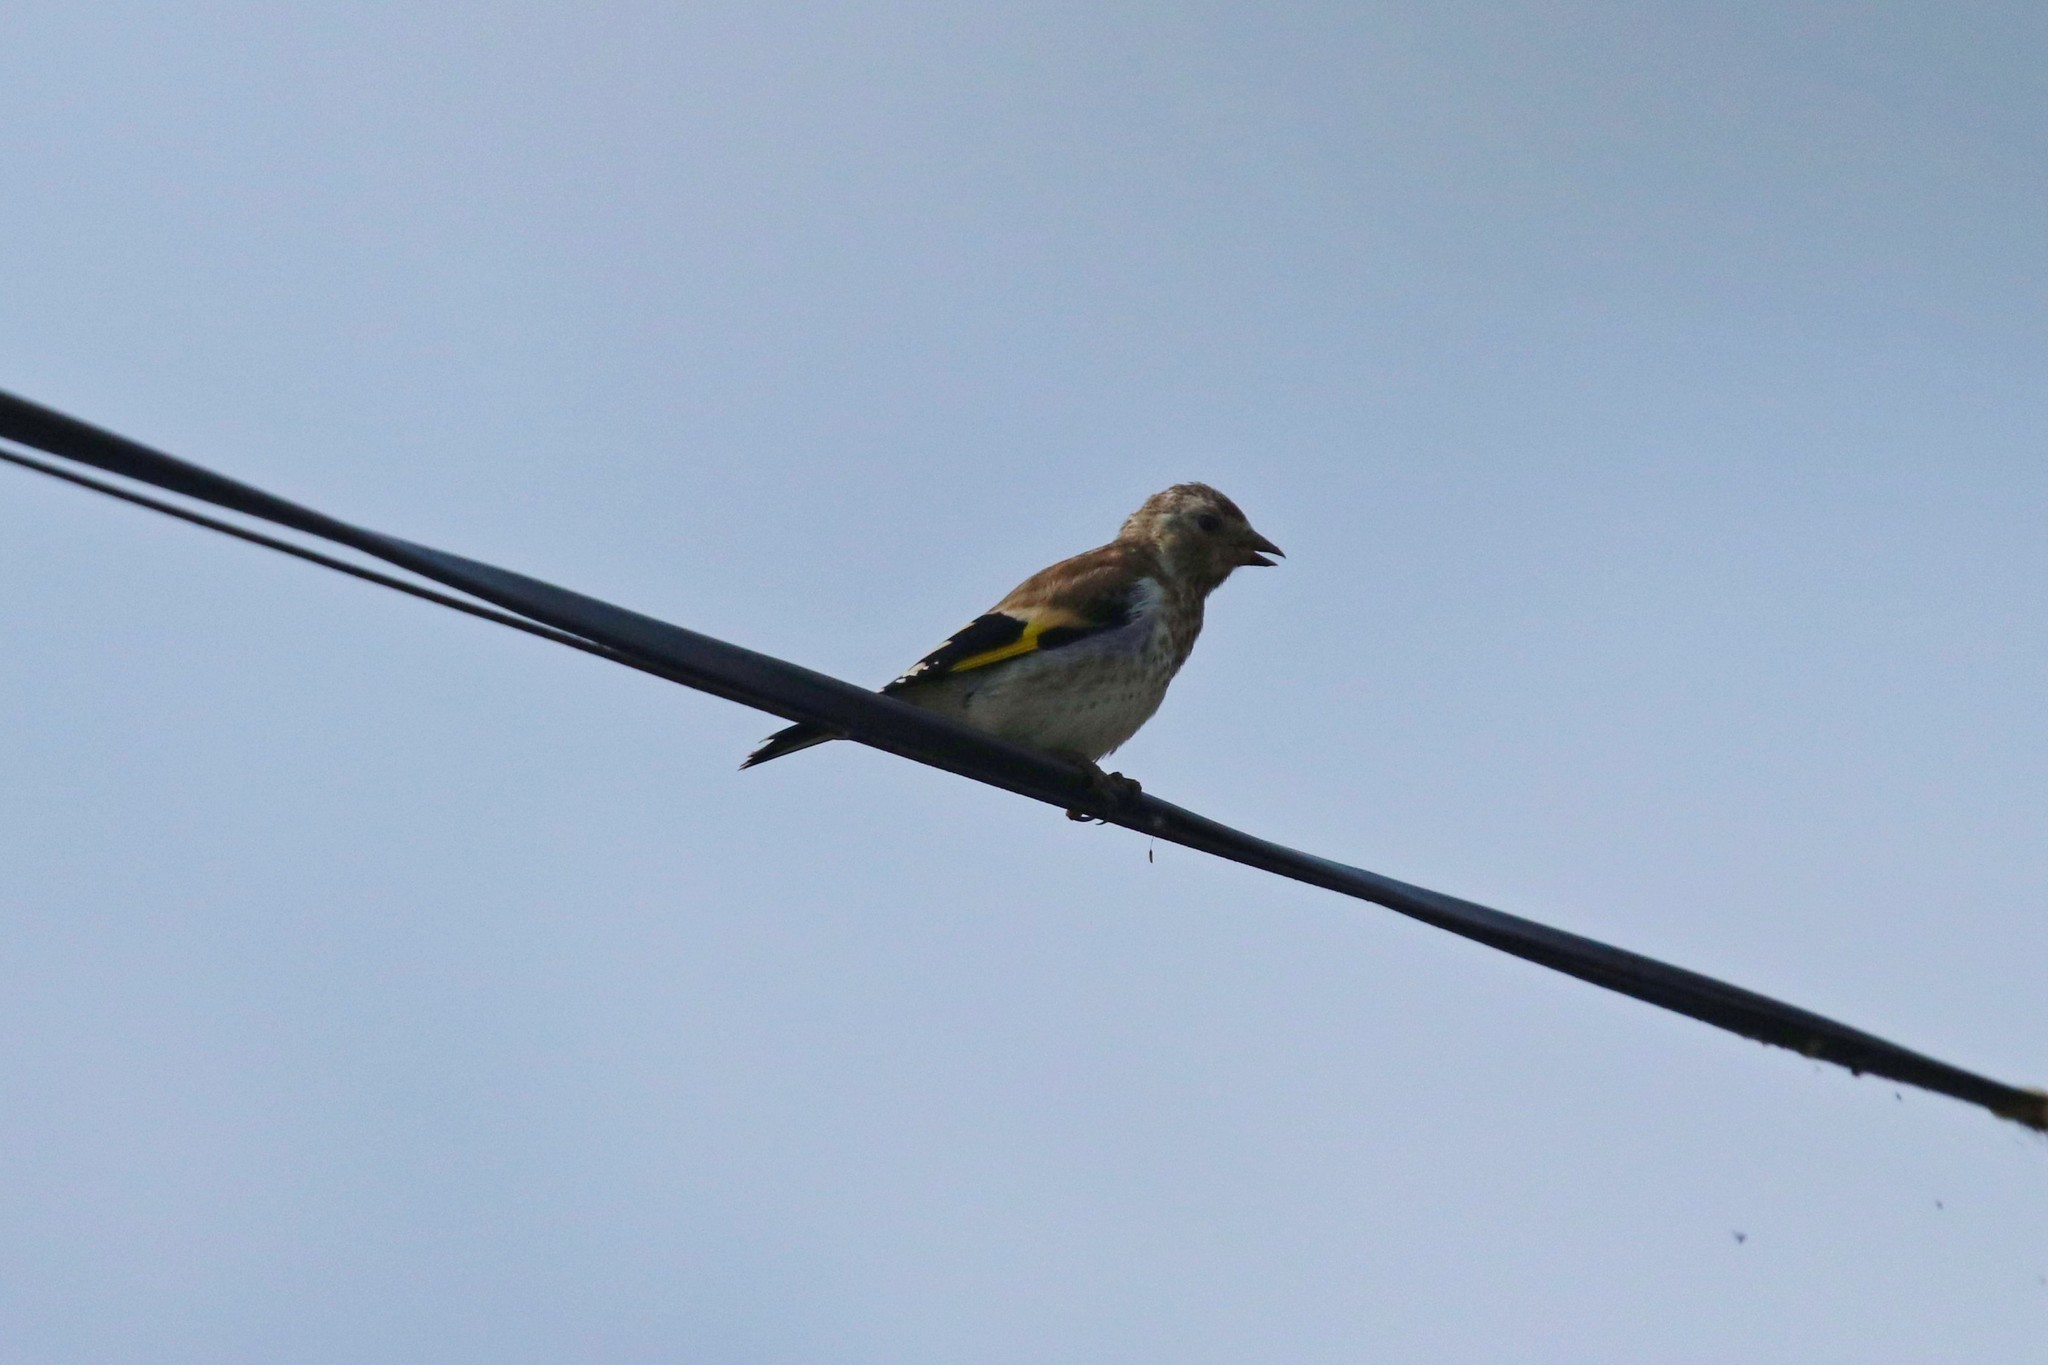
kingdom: Animalia
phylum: Chordata
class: Aves
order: Passeriformes
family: Fringillidae
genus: Carduelis
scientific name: Carduelis carduelis
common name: European goldfinch
